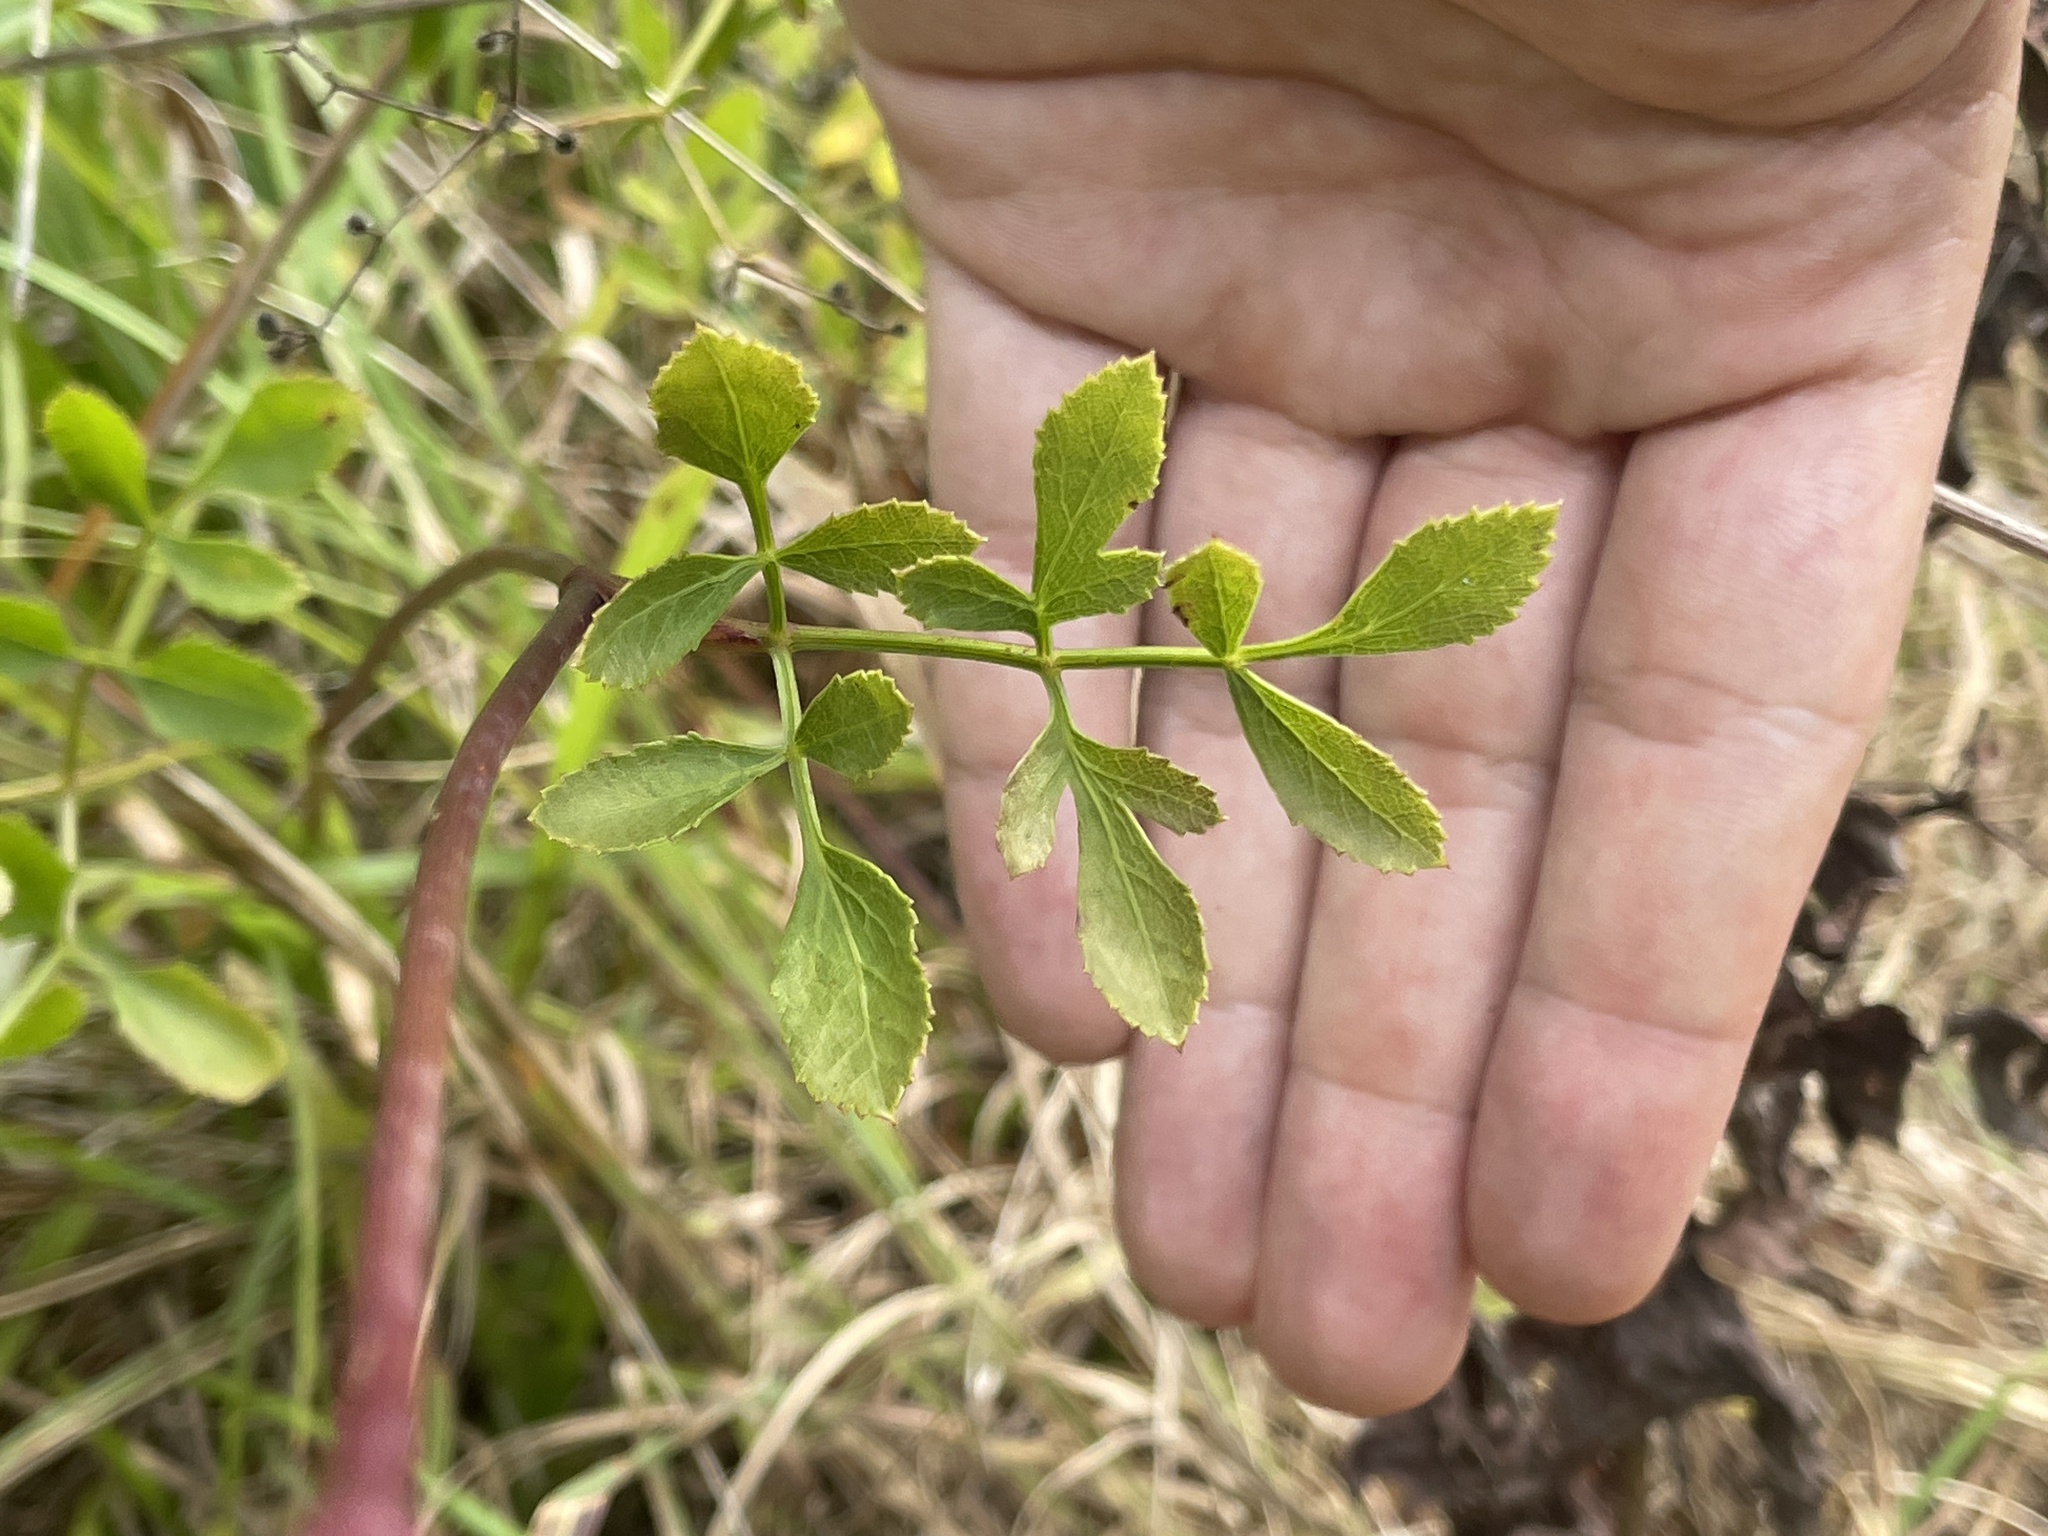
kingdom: Plantae
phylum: Tracheophyta
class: Magnoliopsida
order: Apiales
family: Apiaceae
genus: Angelica
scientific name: Angelica venenosa
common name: Hairy angelica
